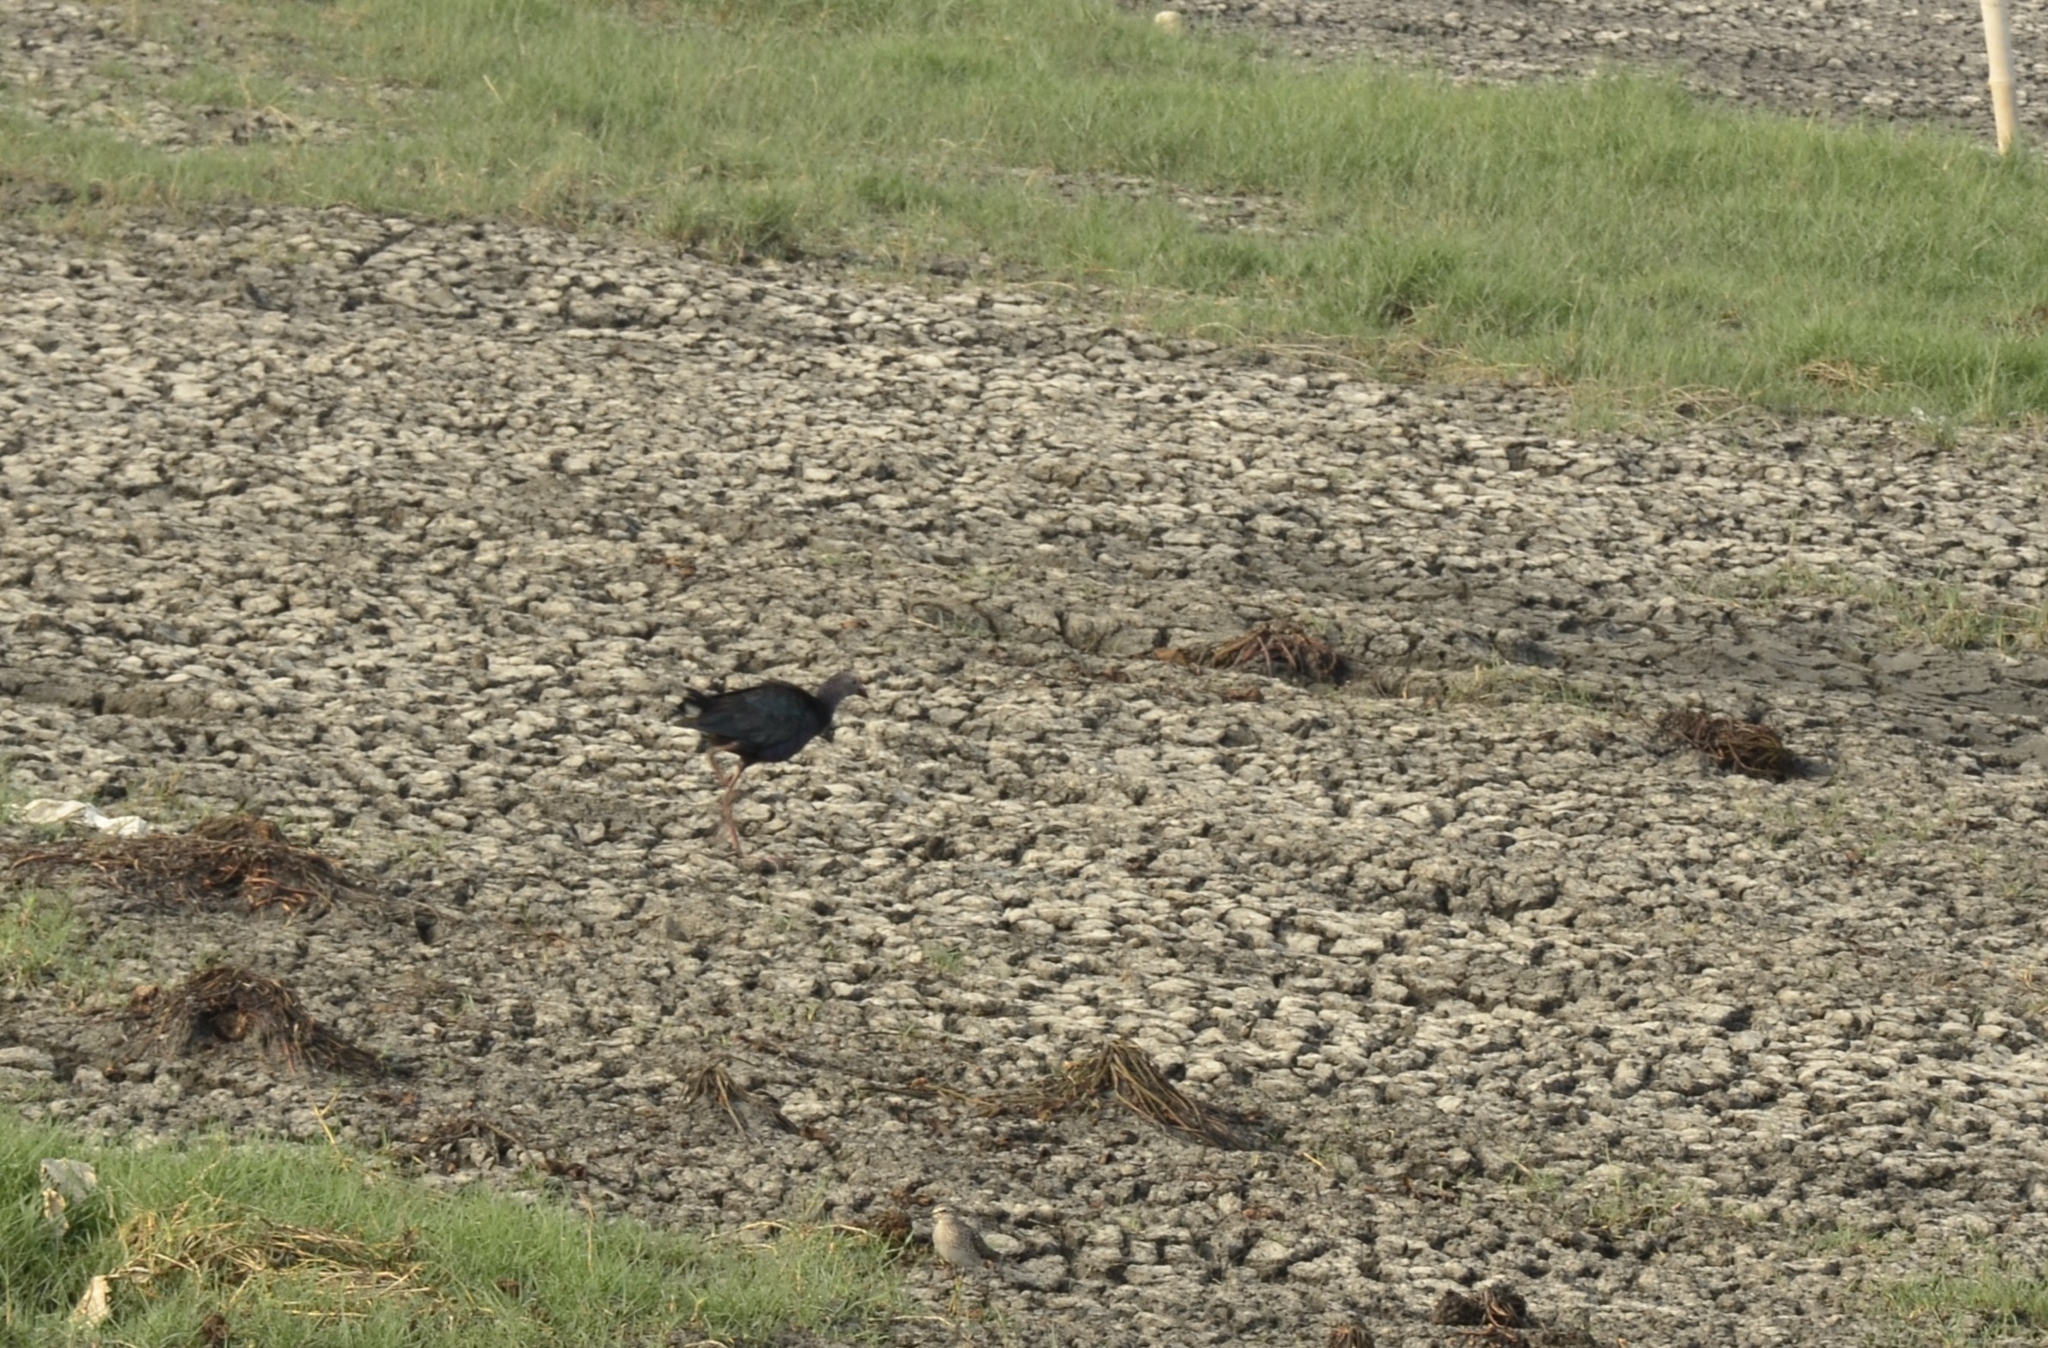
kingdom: Animalia
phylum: Chordata
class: Aves
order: Gruiformes
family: Rallidae
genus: Porphyrio
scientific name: Porphyrio porphyrio
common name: Purple swamphen
